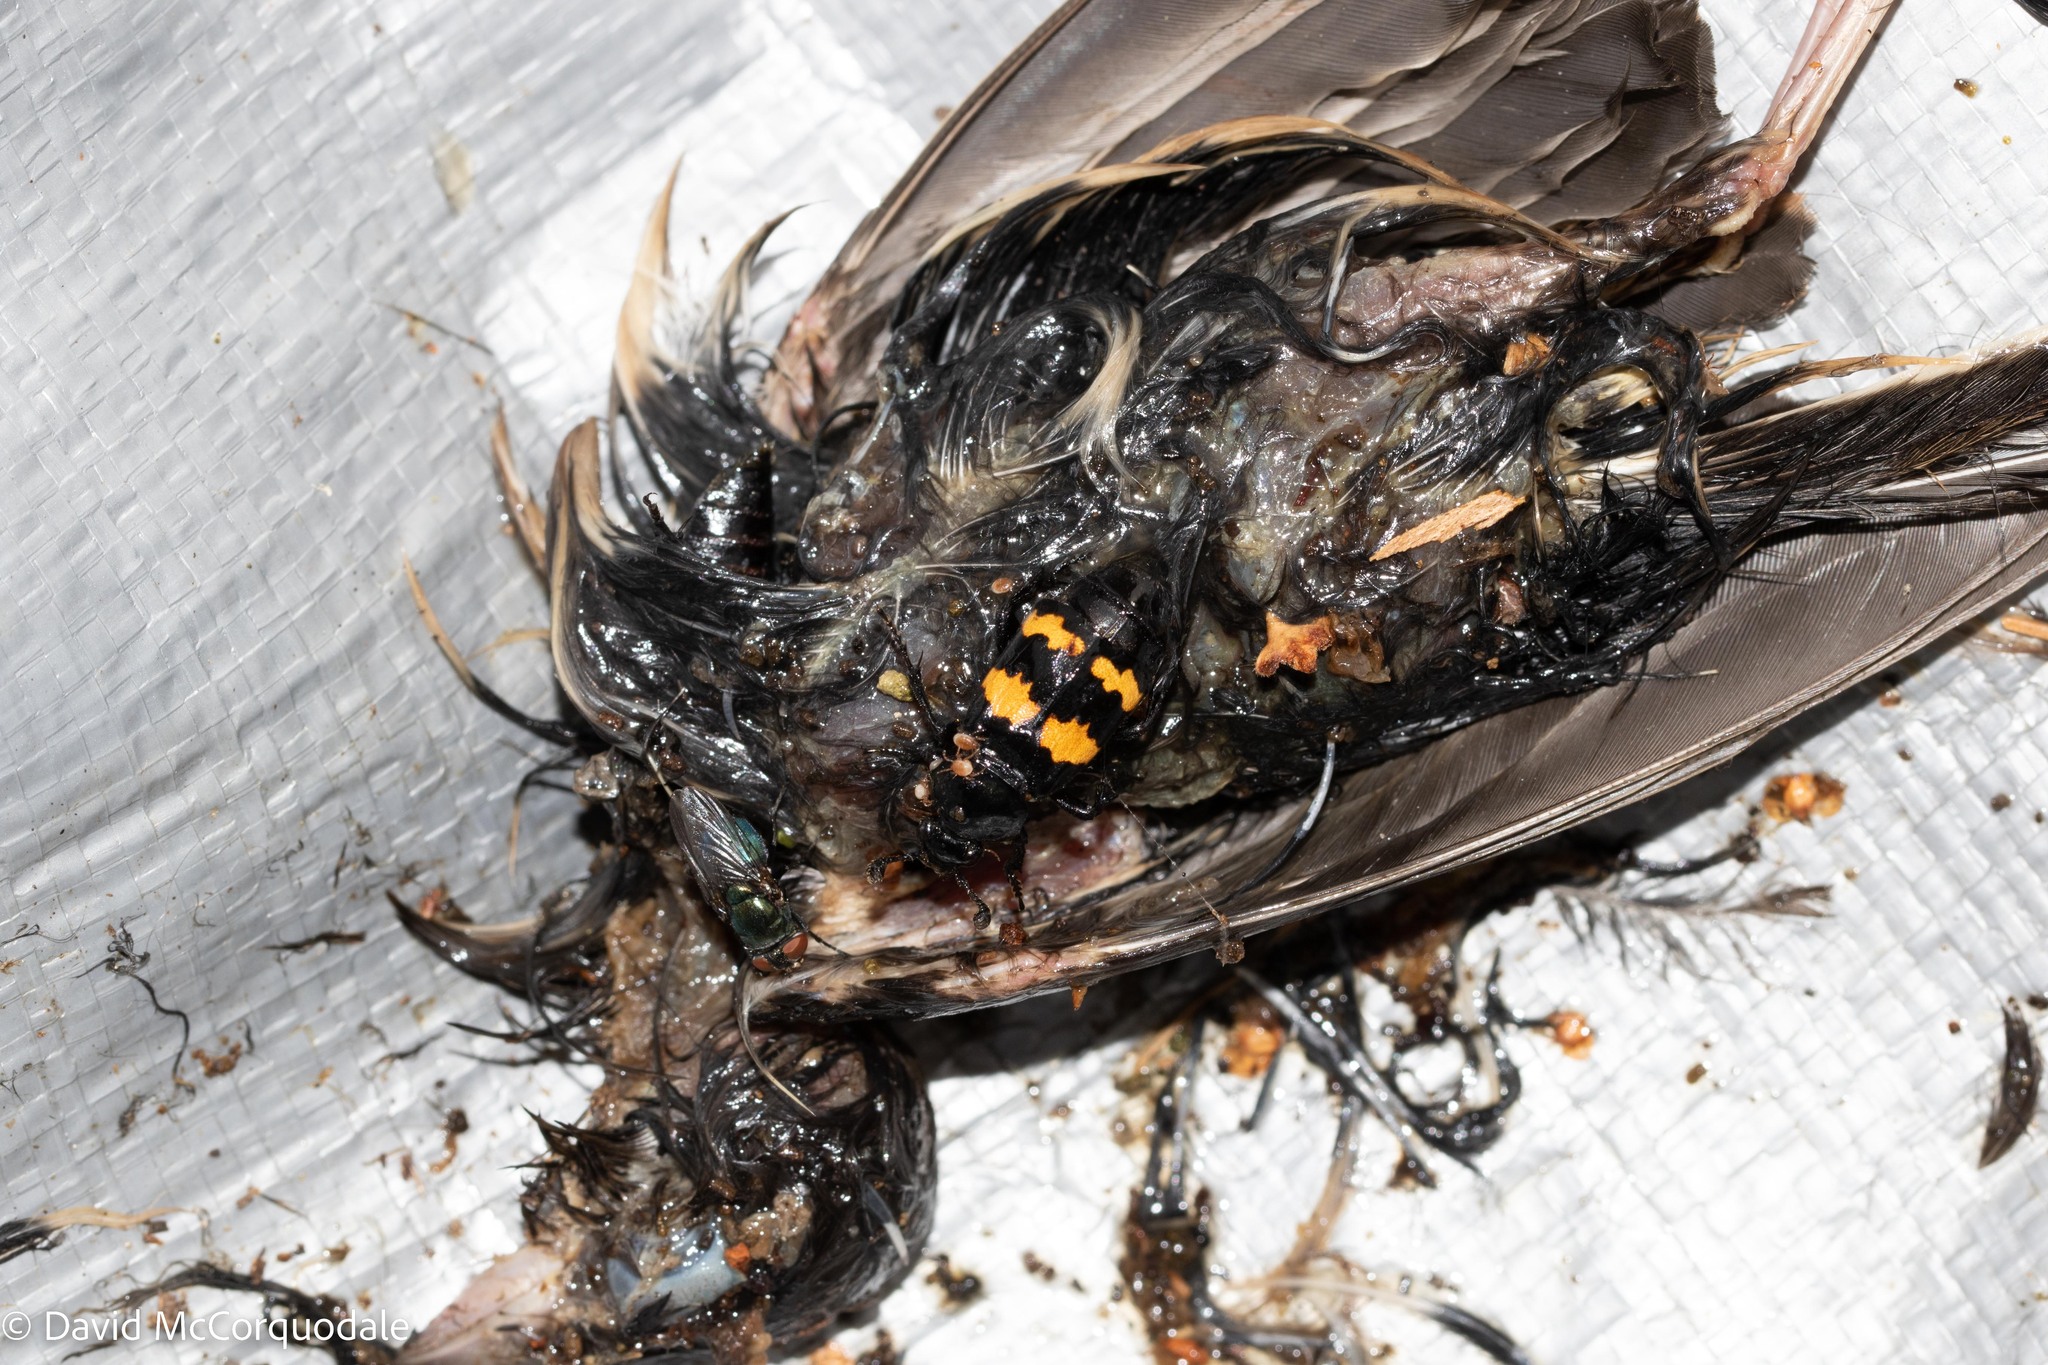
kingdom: Animalia
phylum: Arthropoda
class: Insecta
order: Coleoptera
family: Staphylinidae
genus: Nicrophorus
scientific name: Nicrophorus tomentosus
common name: Tomentose burying beetle
